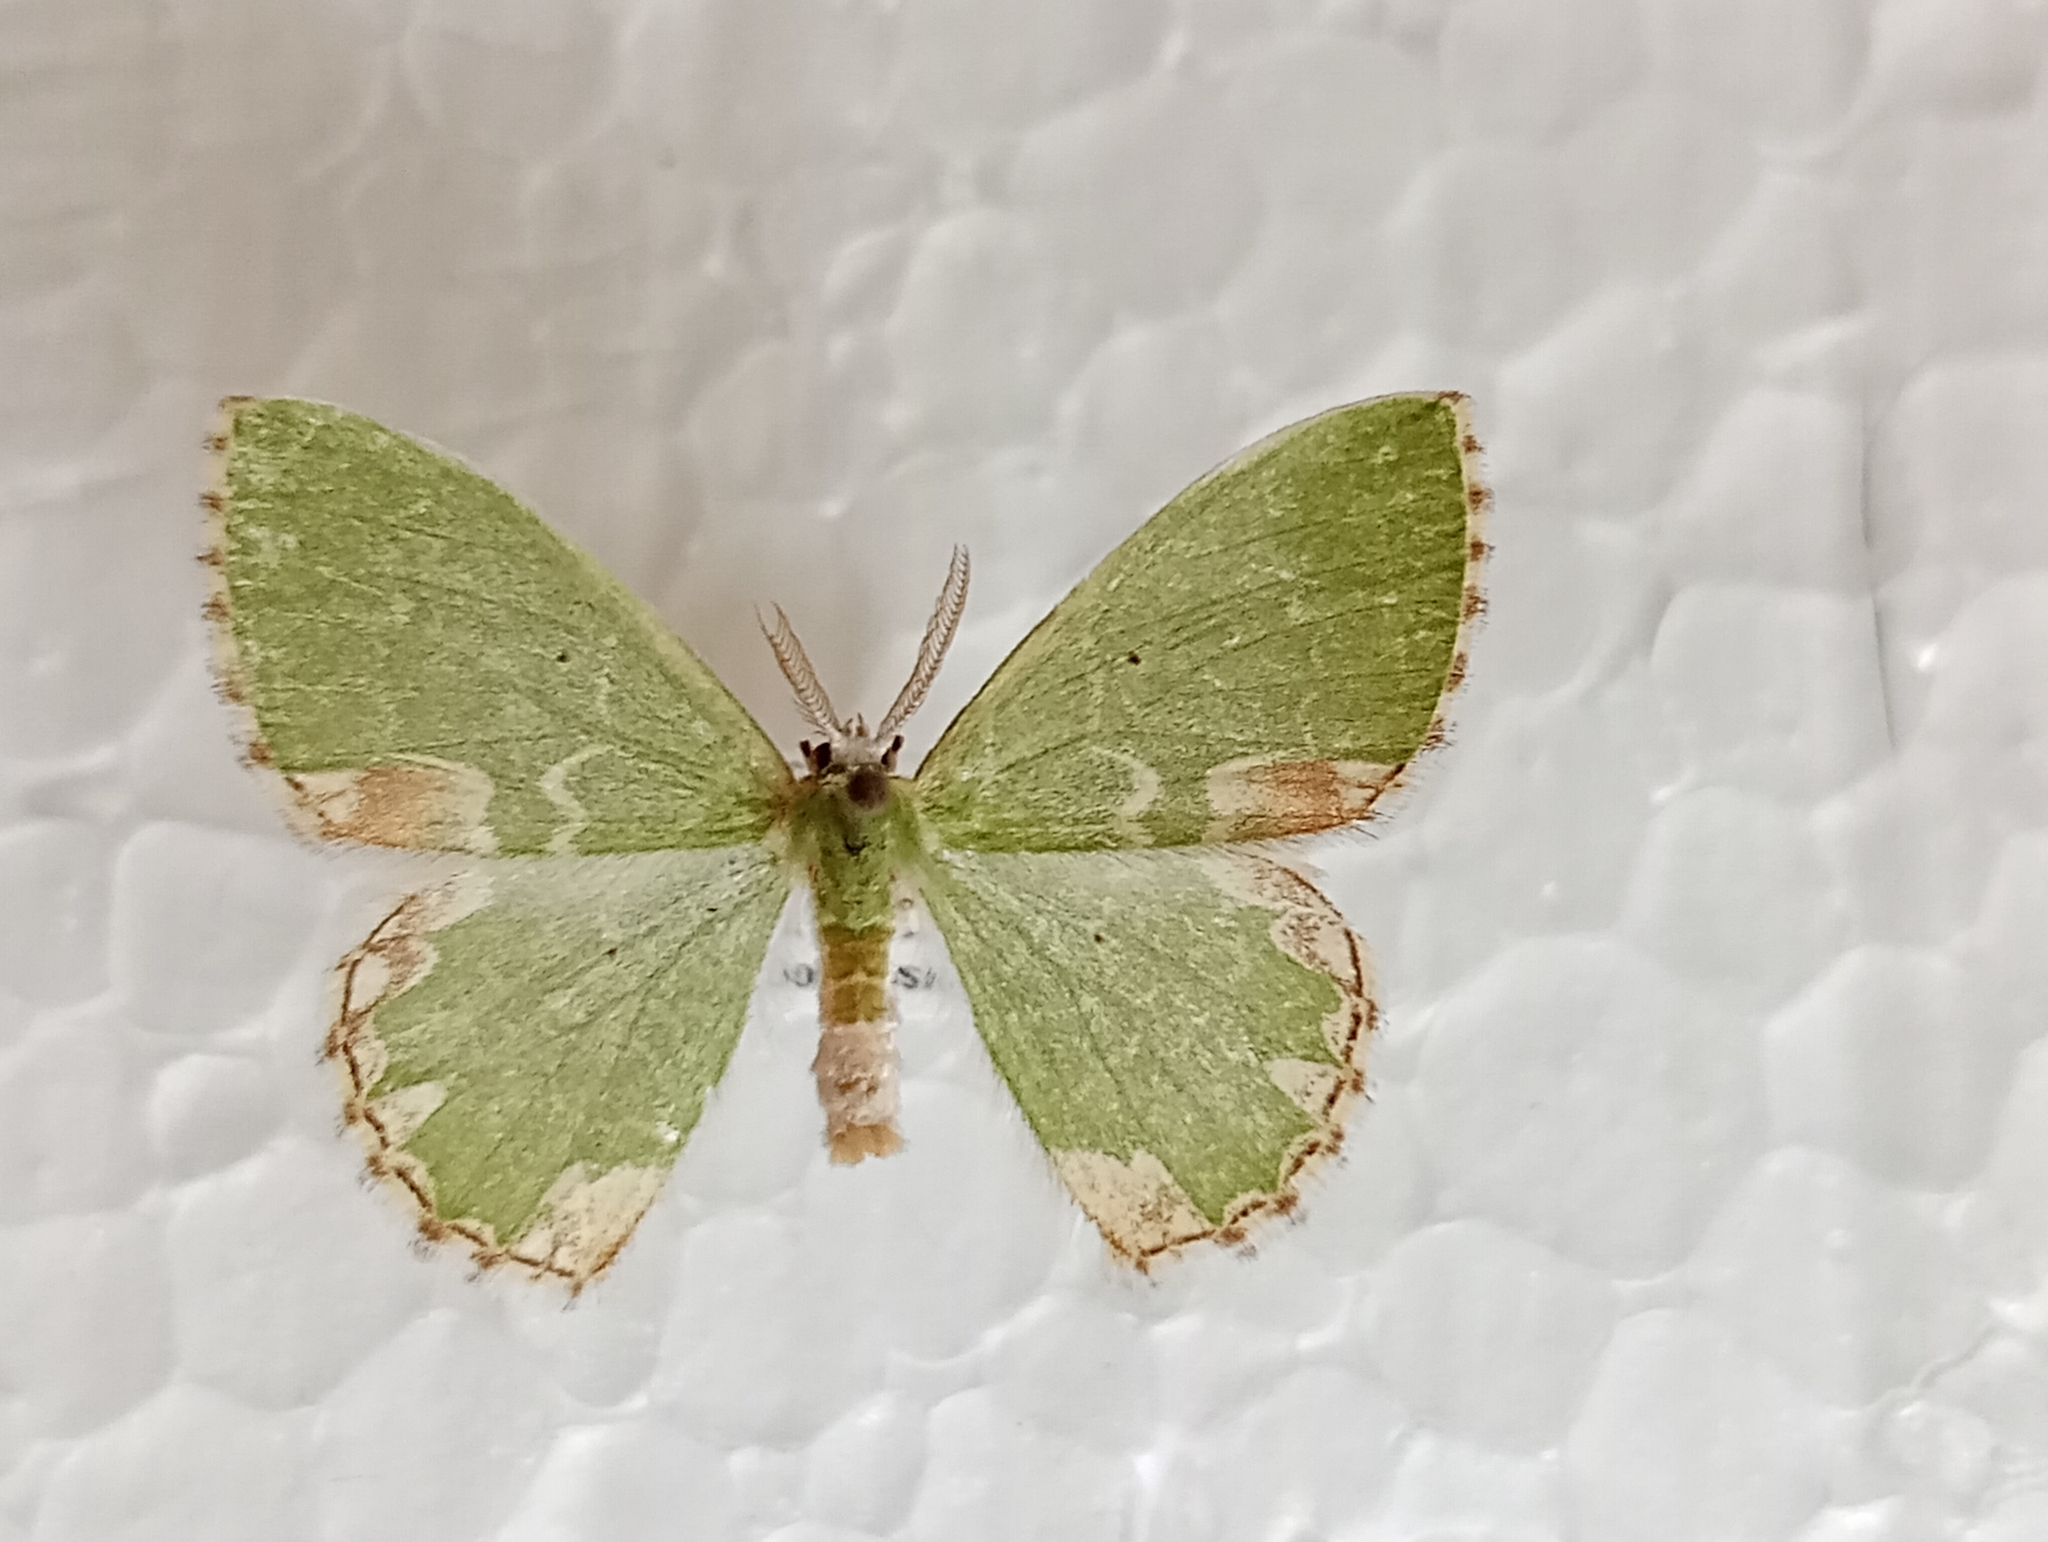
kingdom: Animalia
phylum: Arthropoda
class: Insecta
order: Lepidoptera
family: Geometridae
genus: Comibaena
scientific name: Comibaena bajularia
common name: Blotched emerald
